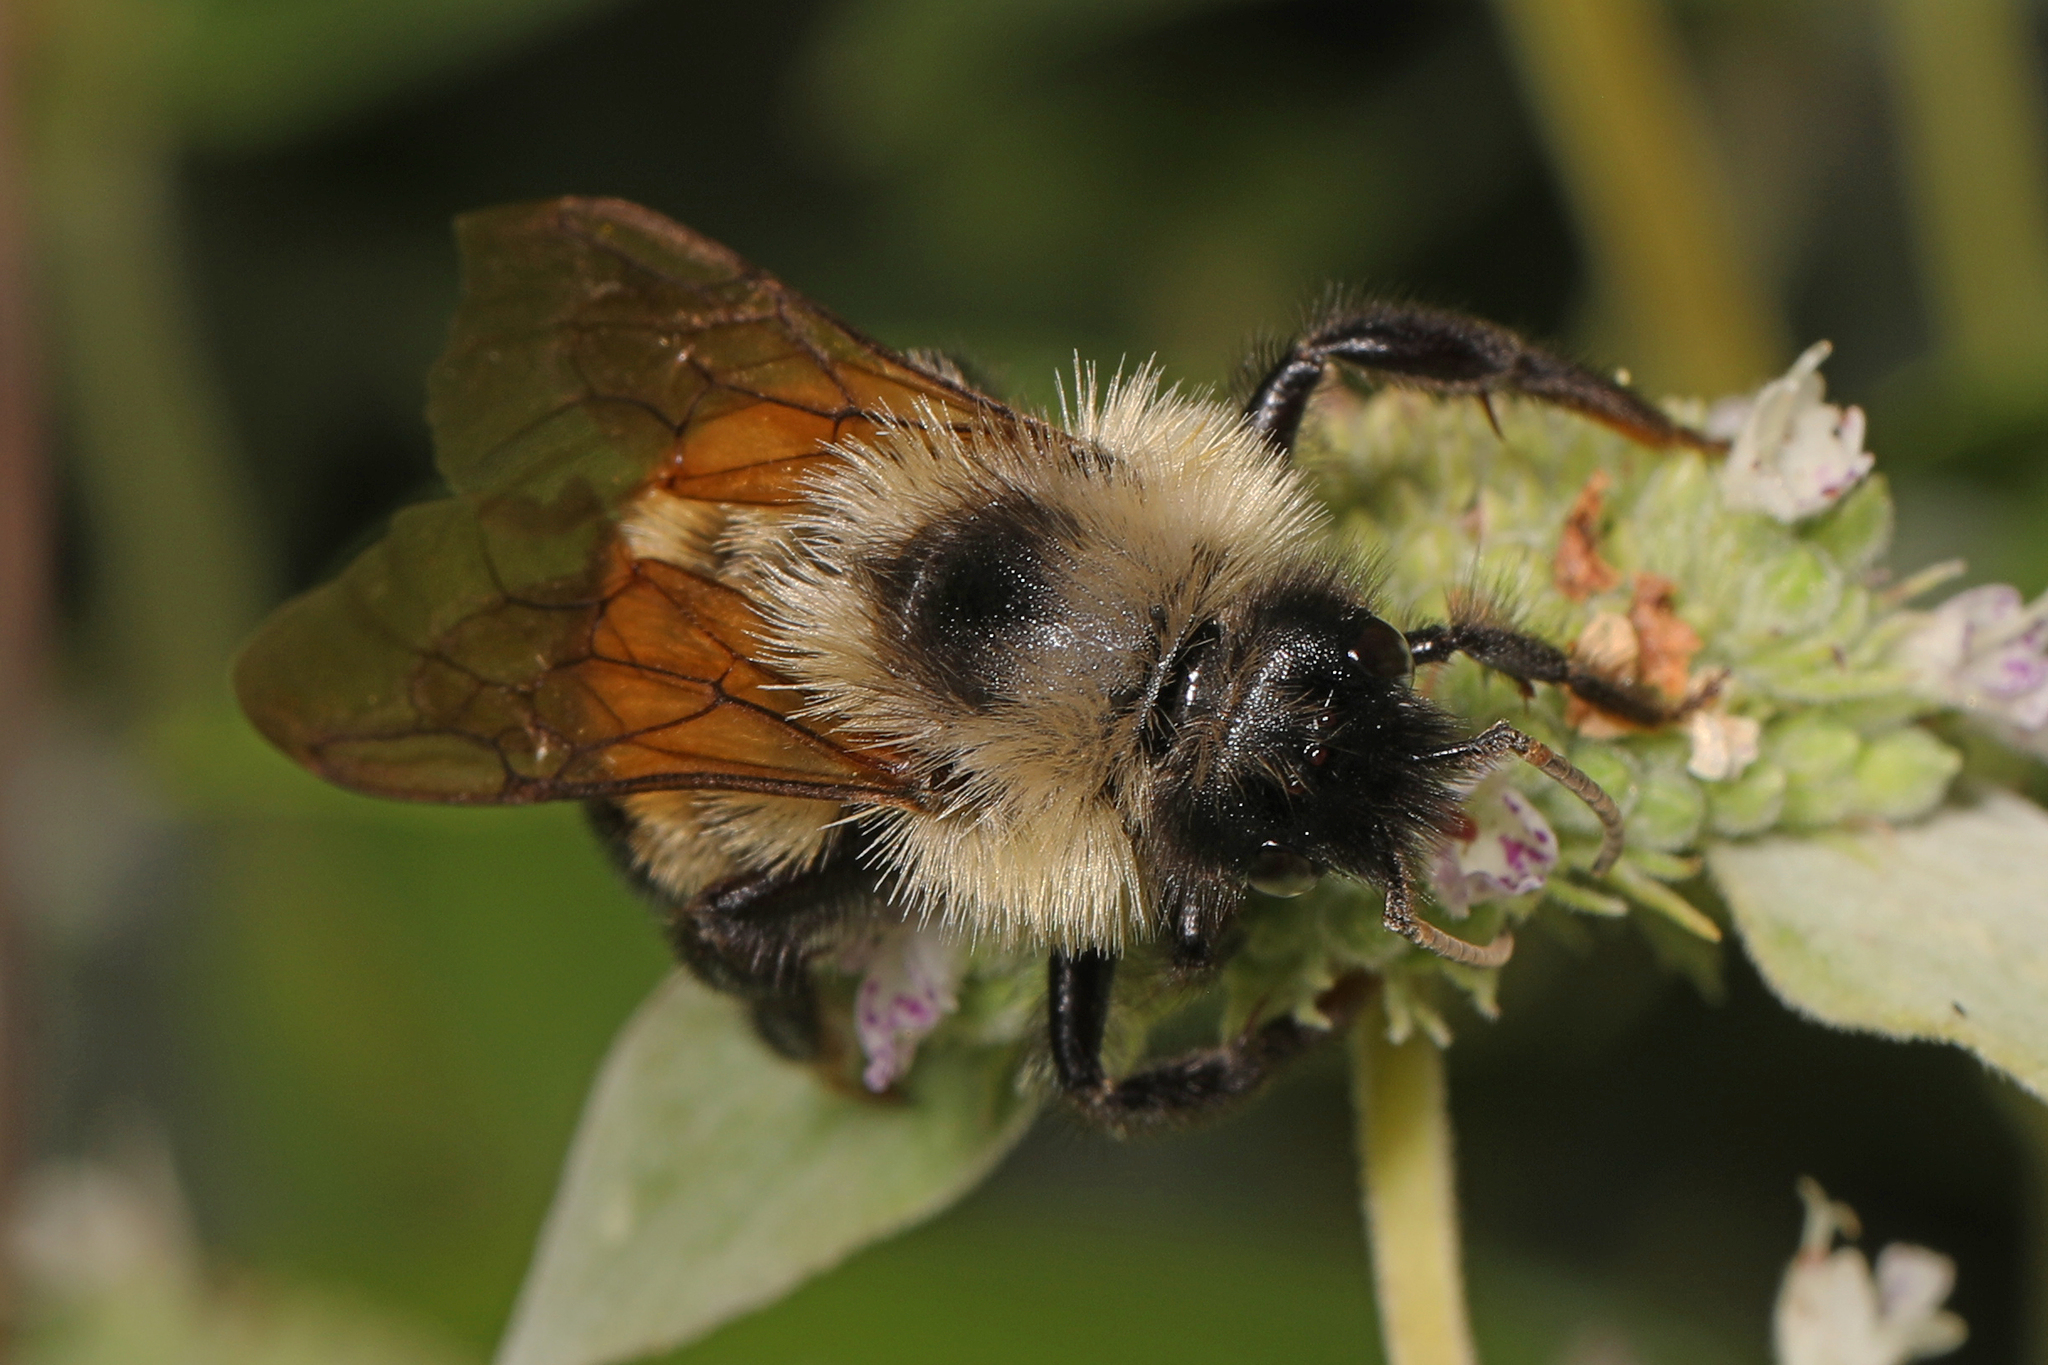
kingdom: Animalia
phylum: Arthropoda
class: Insecta
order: Hymenoptera
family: Apidae
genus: Bombus
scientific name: Bombus citrinus
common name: Lemon cuckoo bumble bee
